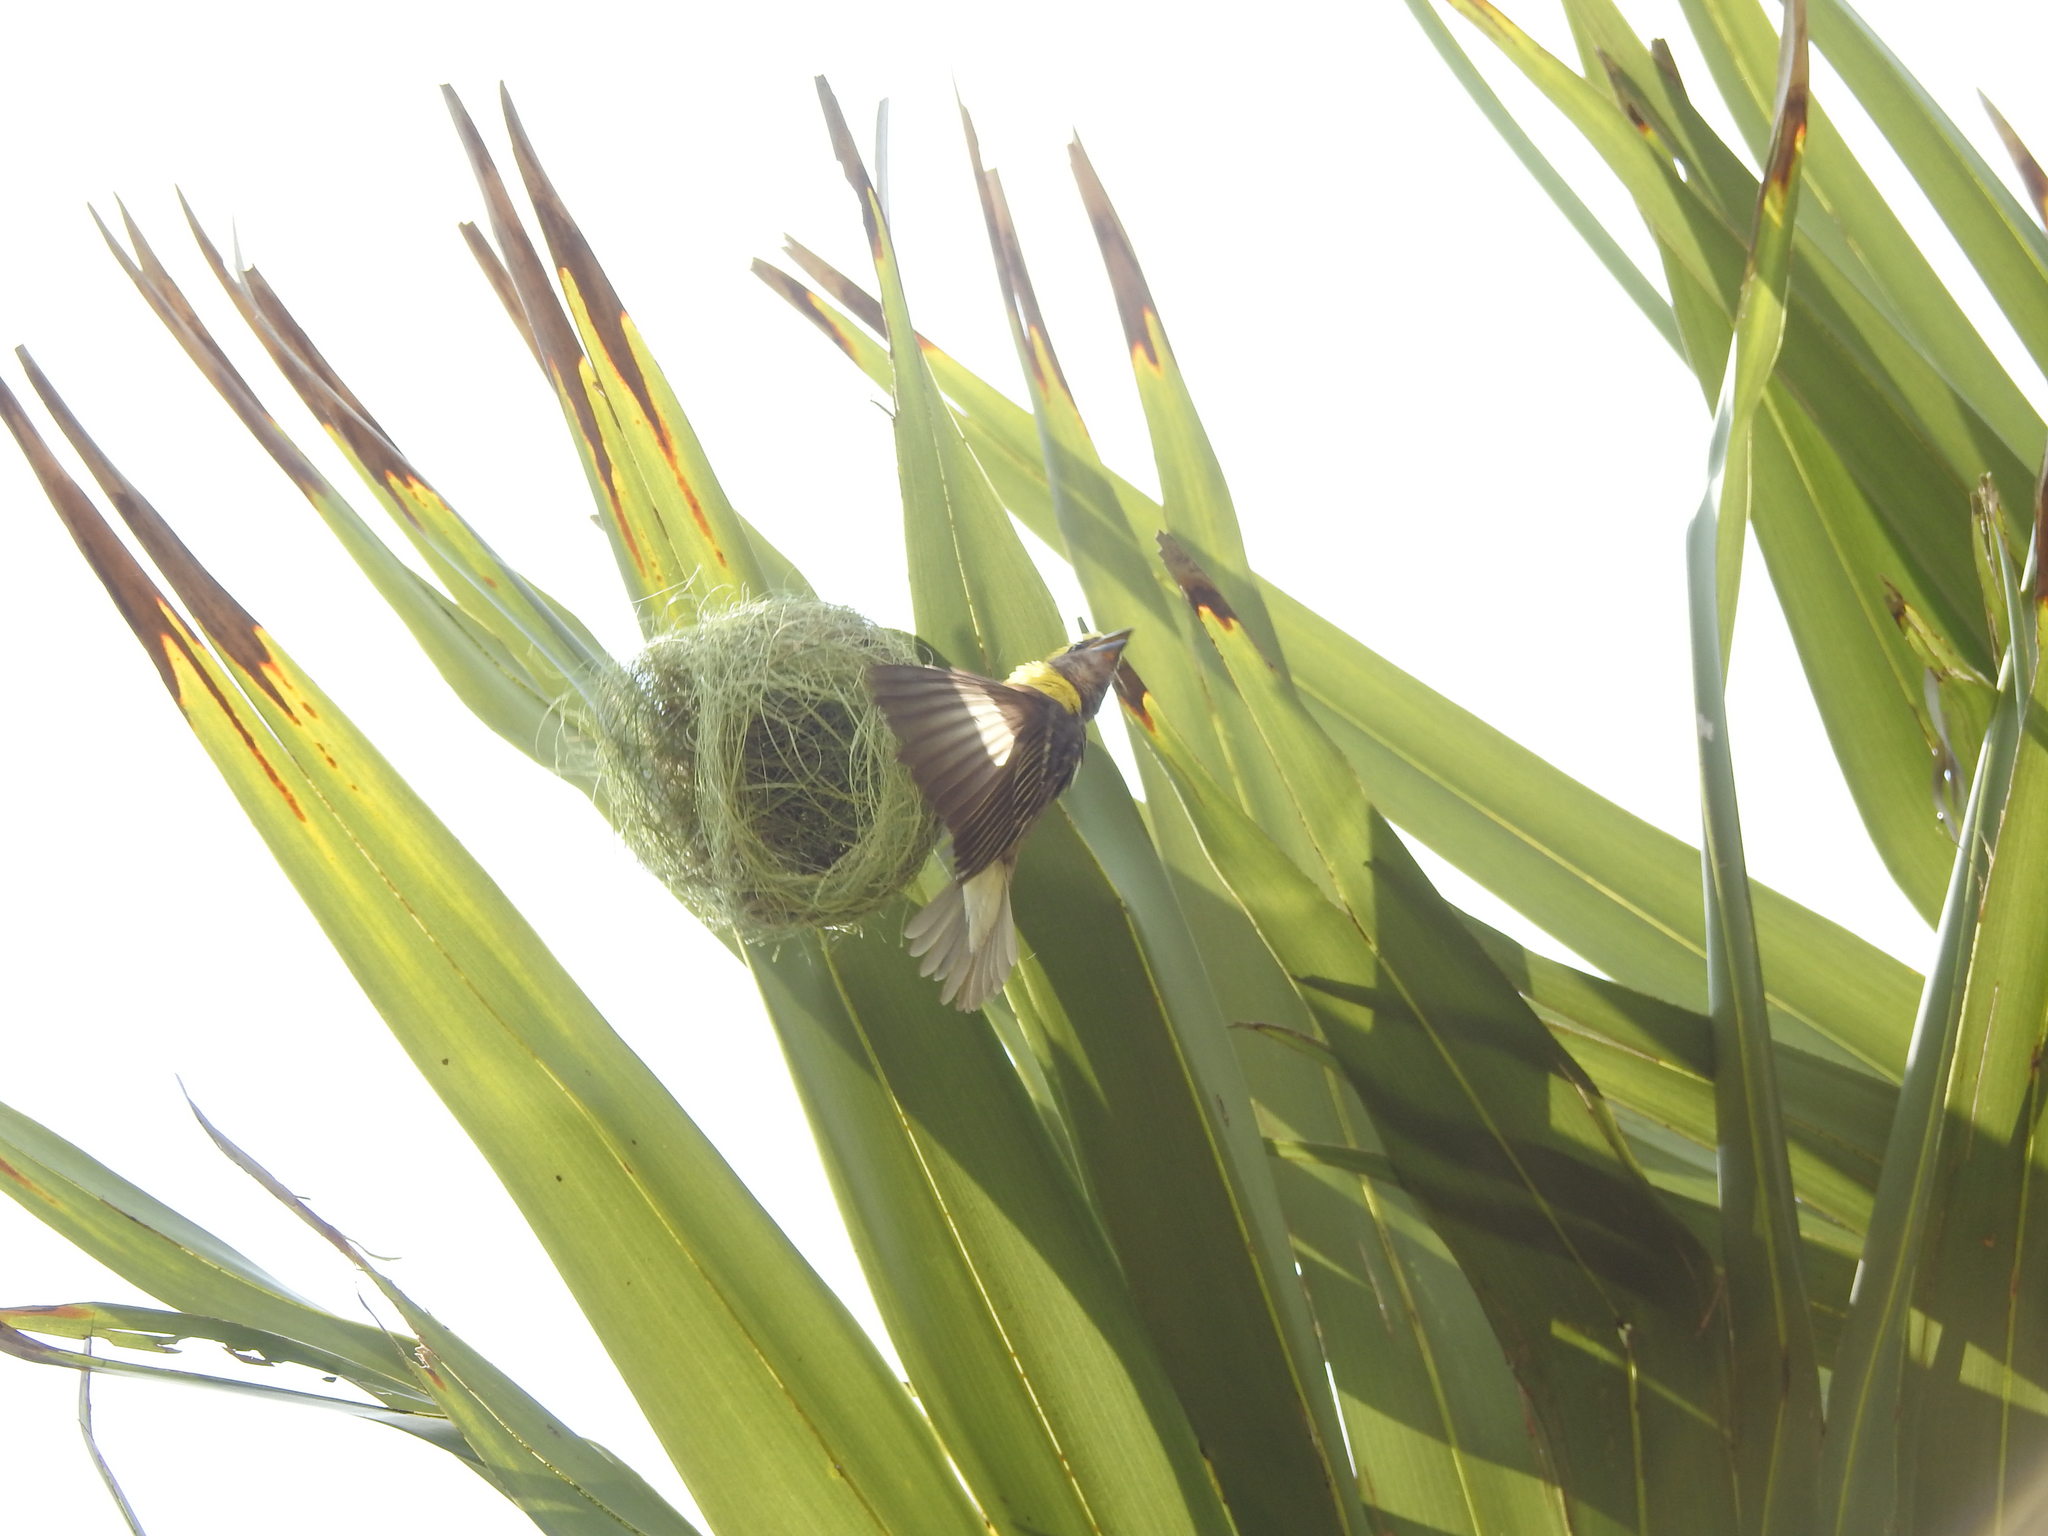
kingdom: Animalia
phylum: Chordata
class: Aves
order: Passeriformes
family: Ploceidae
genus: Ploceus
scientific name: Ploceus philippinus
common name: Baya weaver
